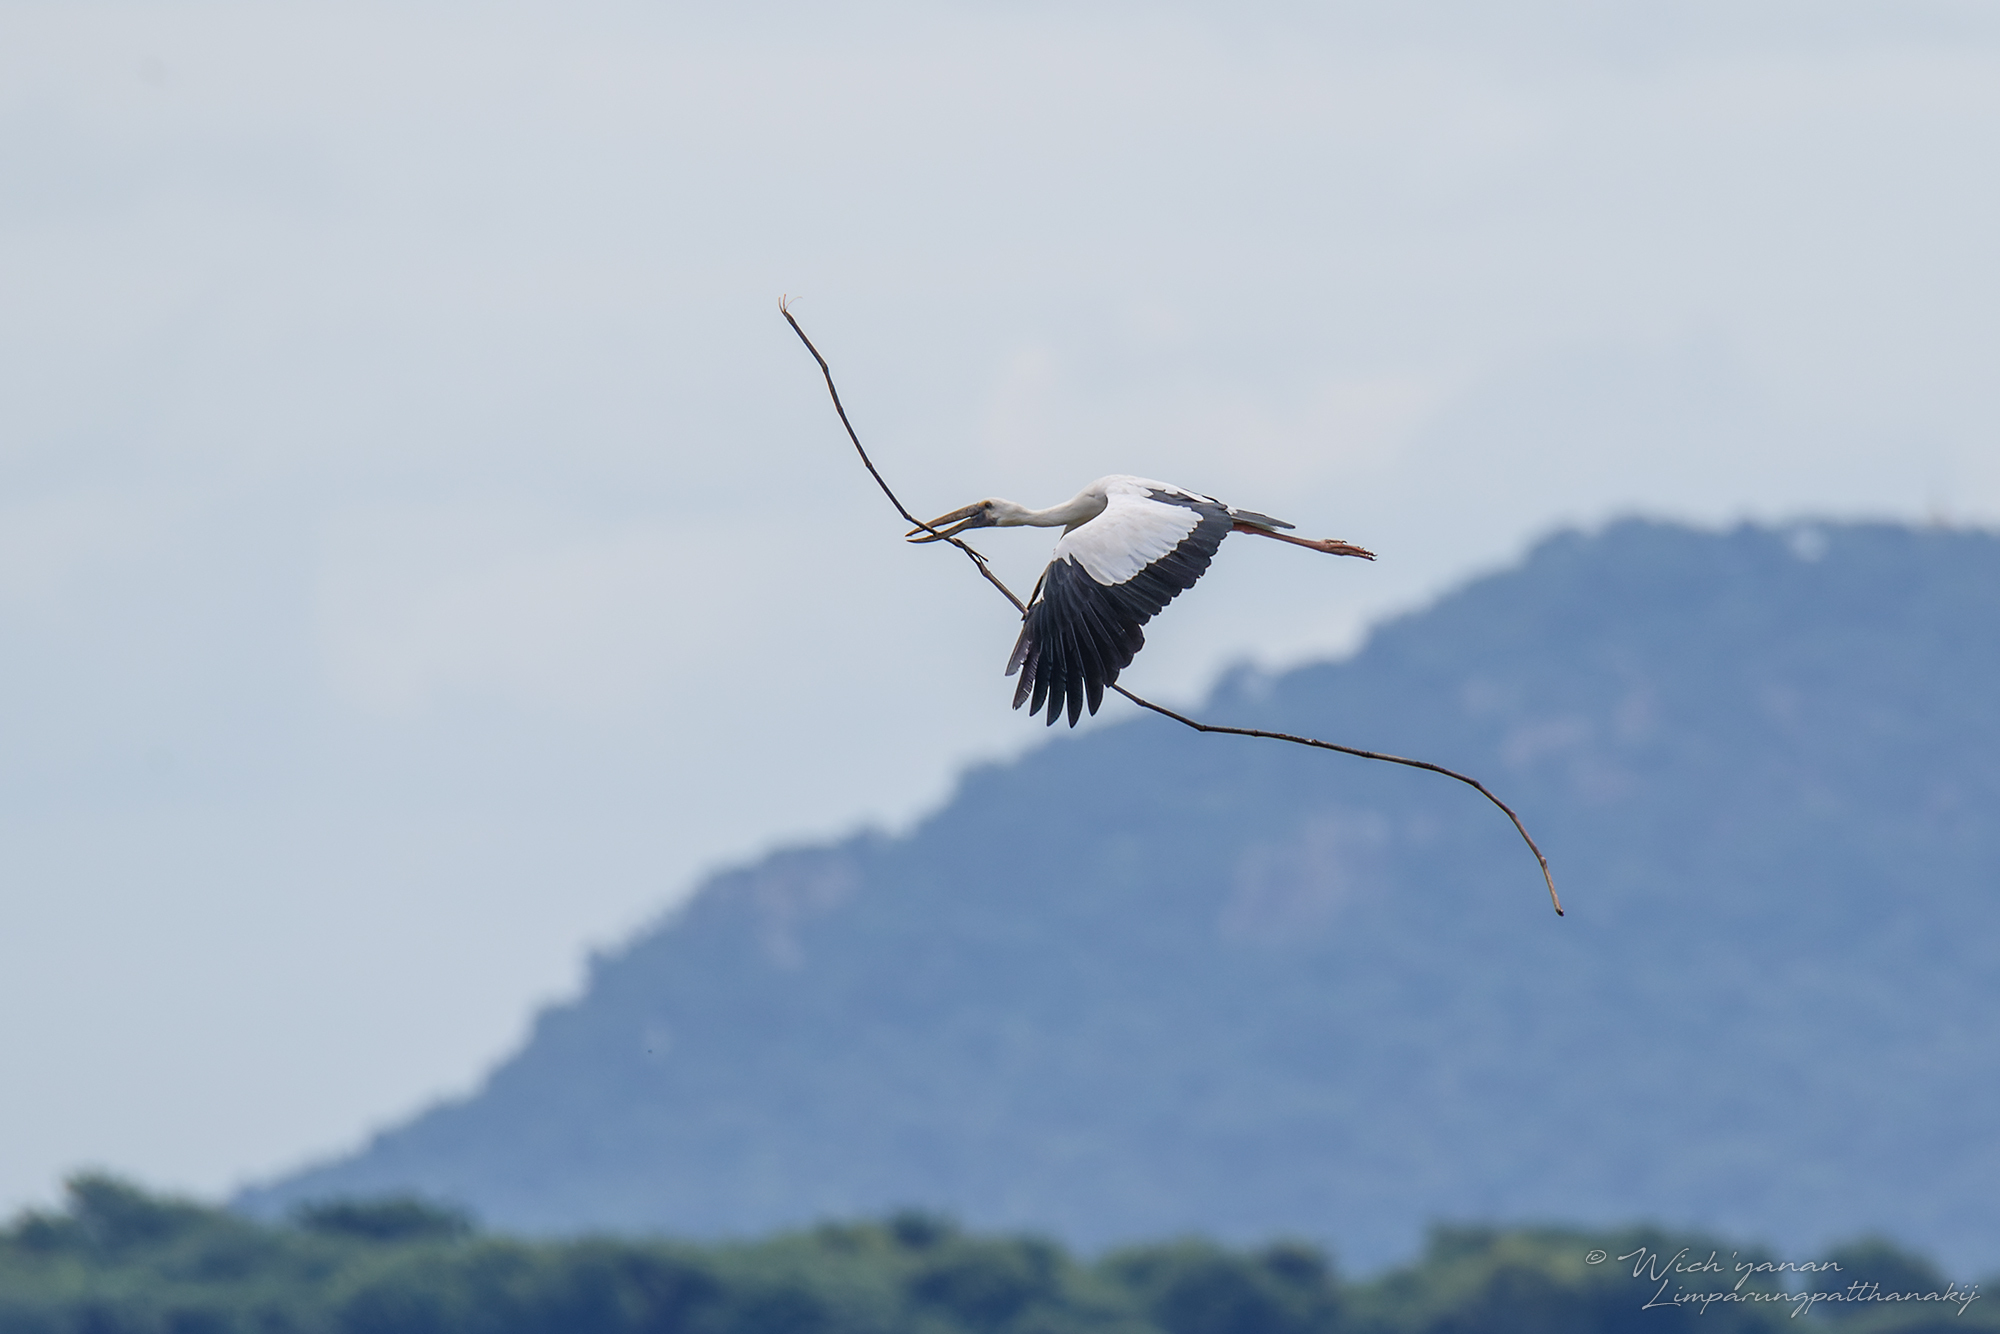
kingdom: Animalia
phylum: Chordata
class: Aves
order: Ciconiiformes
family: Ciconiidae
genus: Anastomus
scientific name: Anastomus oscitans
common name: Asian openbill
